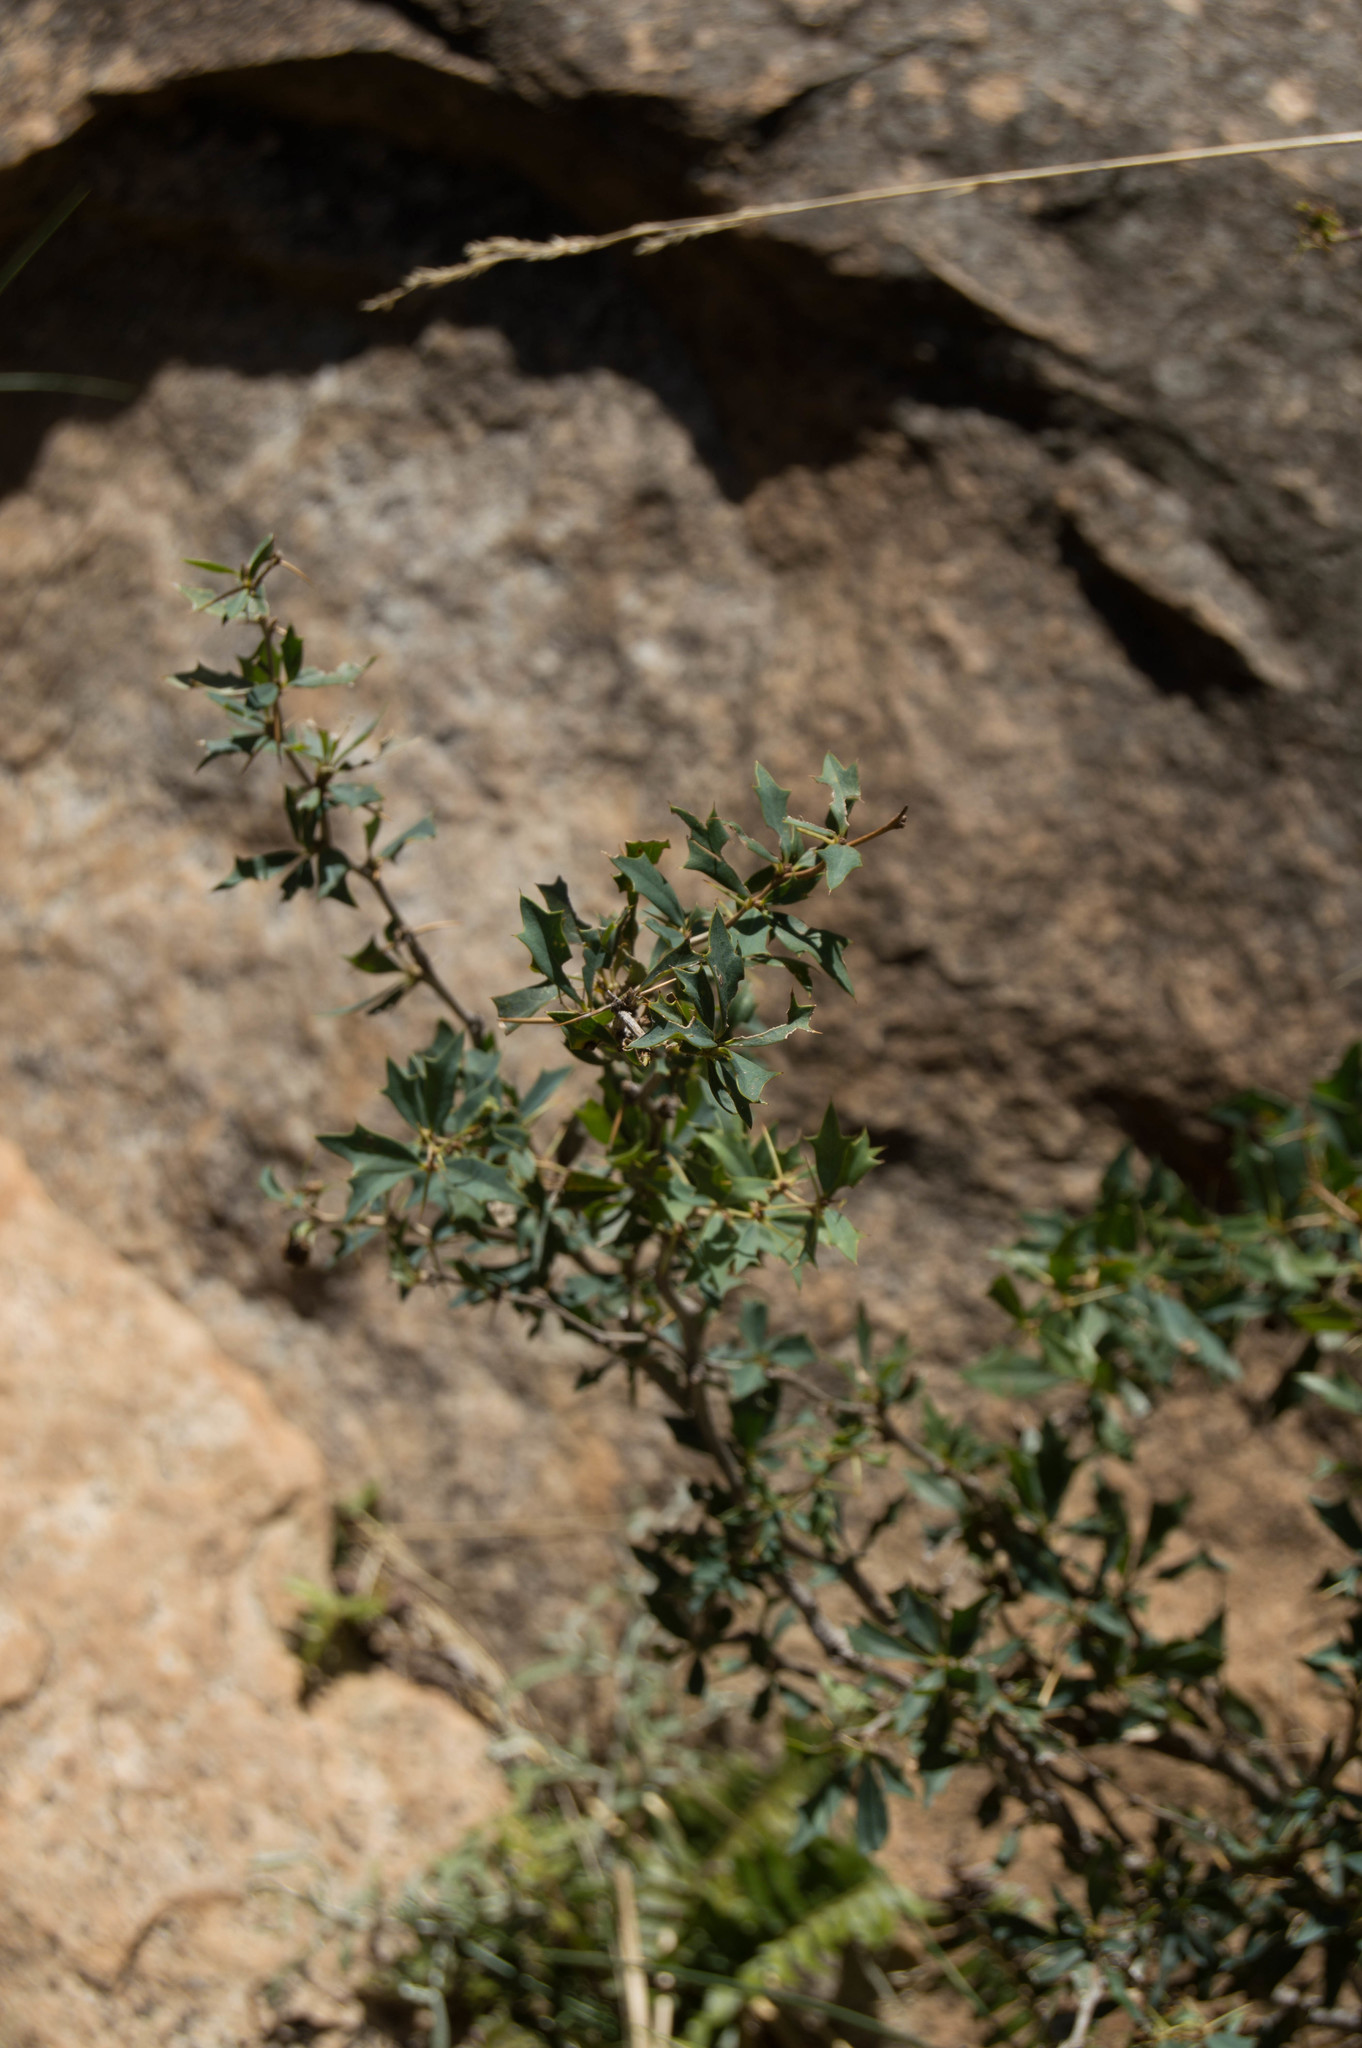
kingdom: Plantae
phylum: Tracheophyta
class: Magnoliopsida
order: Ranunculales
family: Berberidaceae
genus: Berberis
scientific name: Berberis ruscifolia
